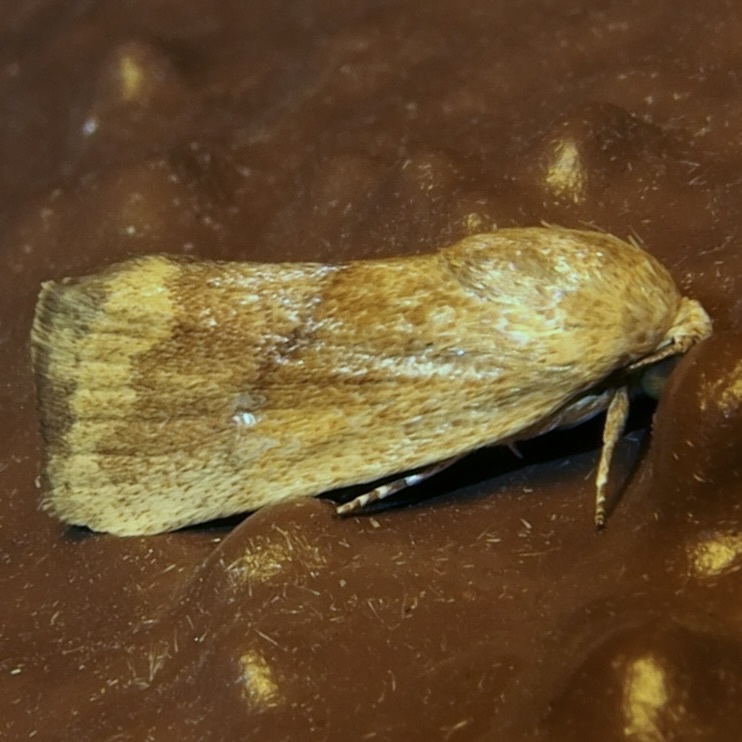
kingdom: Animalia
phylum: Arthropoda
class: Insecta
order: Lepidoptera
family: Noctuidae
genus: Acontia
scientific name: Acontia fasciatella
